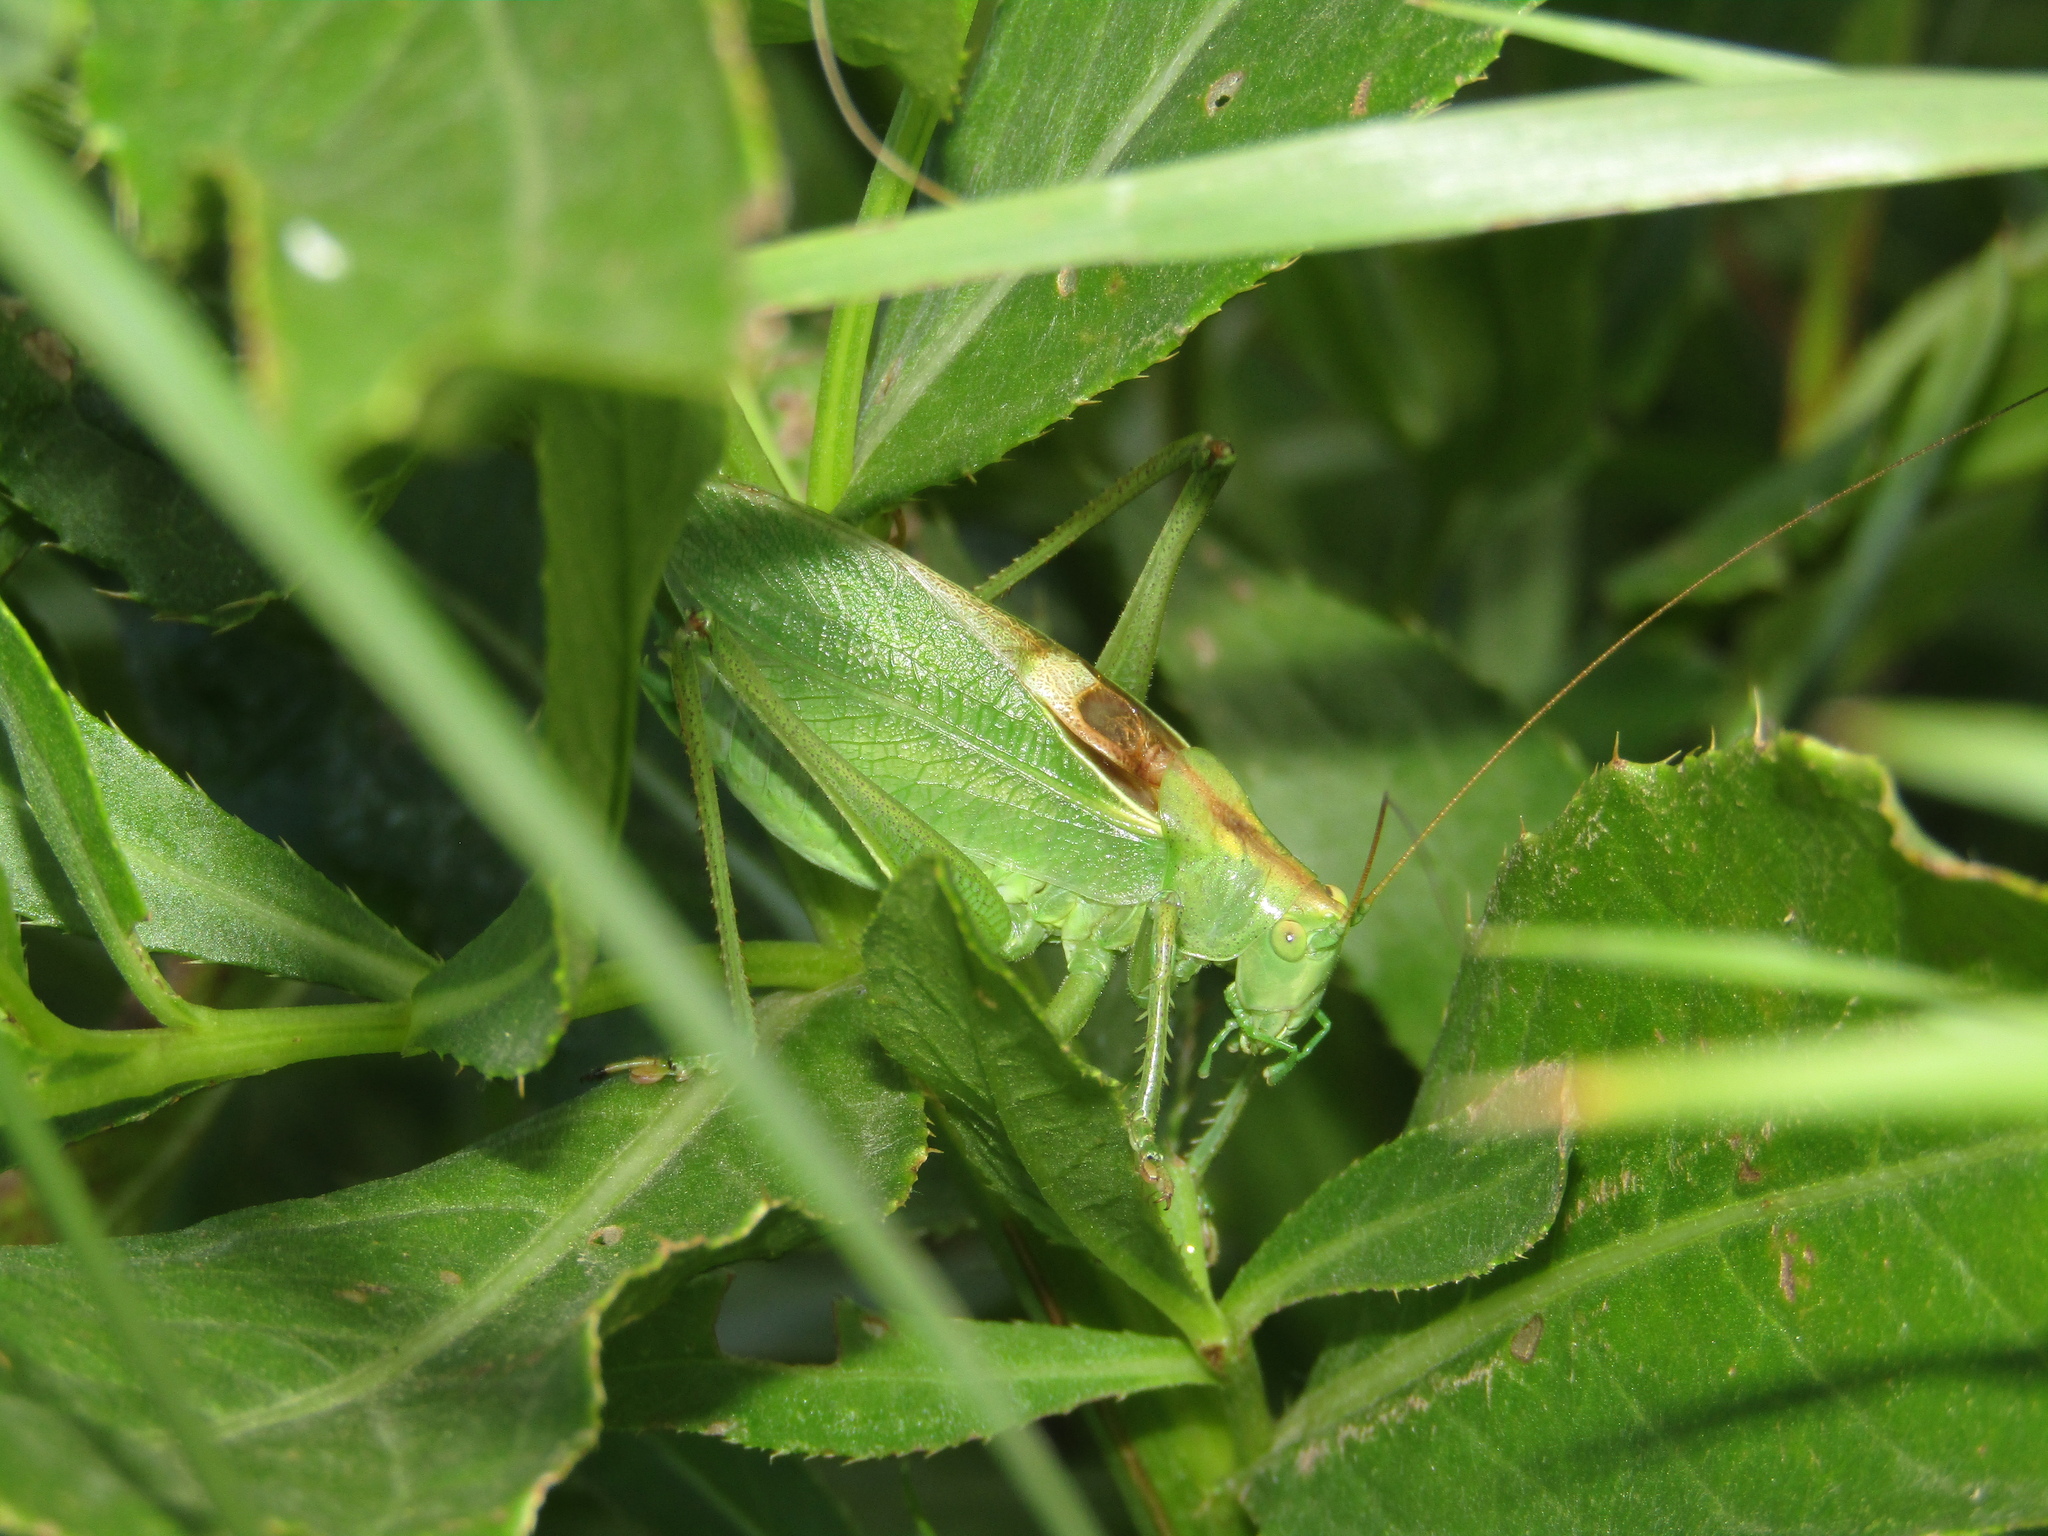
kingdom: Animalia
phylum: Arthropoda
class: Insecta
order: Orthoptera
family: Tettigoniidae
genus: Tettigonia
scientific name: Tettigonia cantans
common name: Upland green bush-cricket
